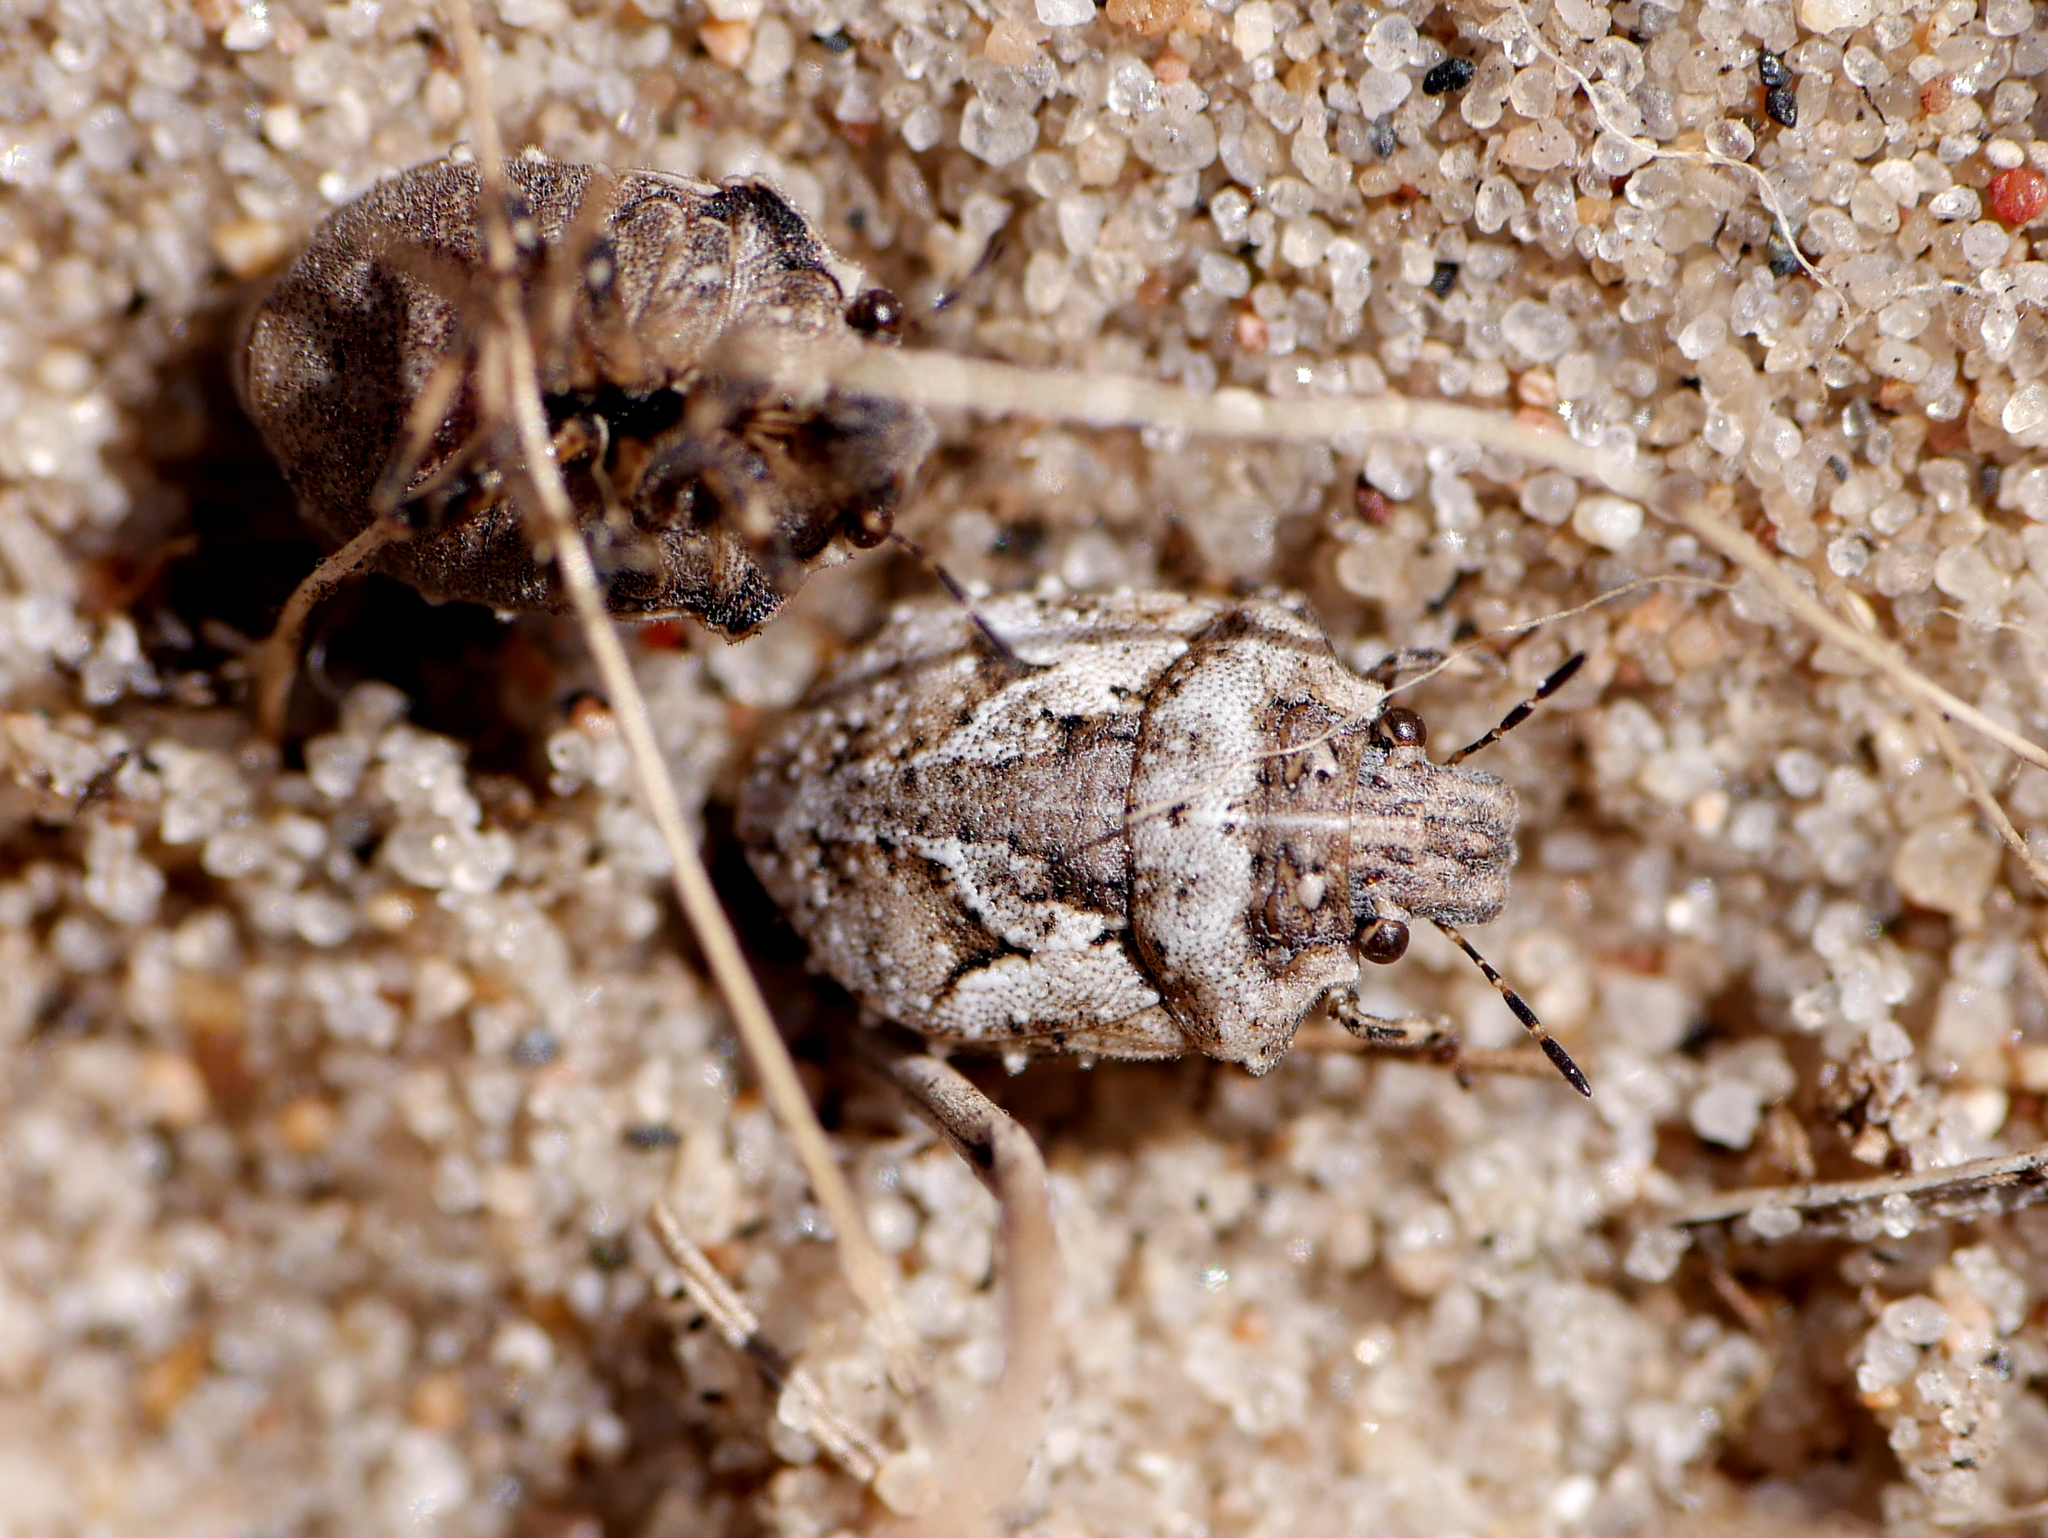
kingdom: Animalia
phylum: Arthropoda
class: Insecta
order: Hemiptera
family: Scutelleridae
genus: Phimodera
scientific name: Phimodera humeralis
